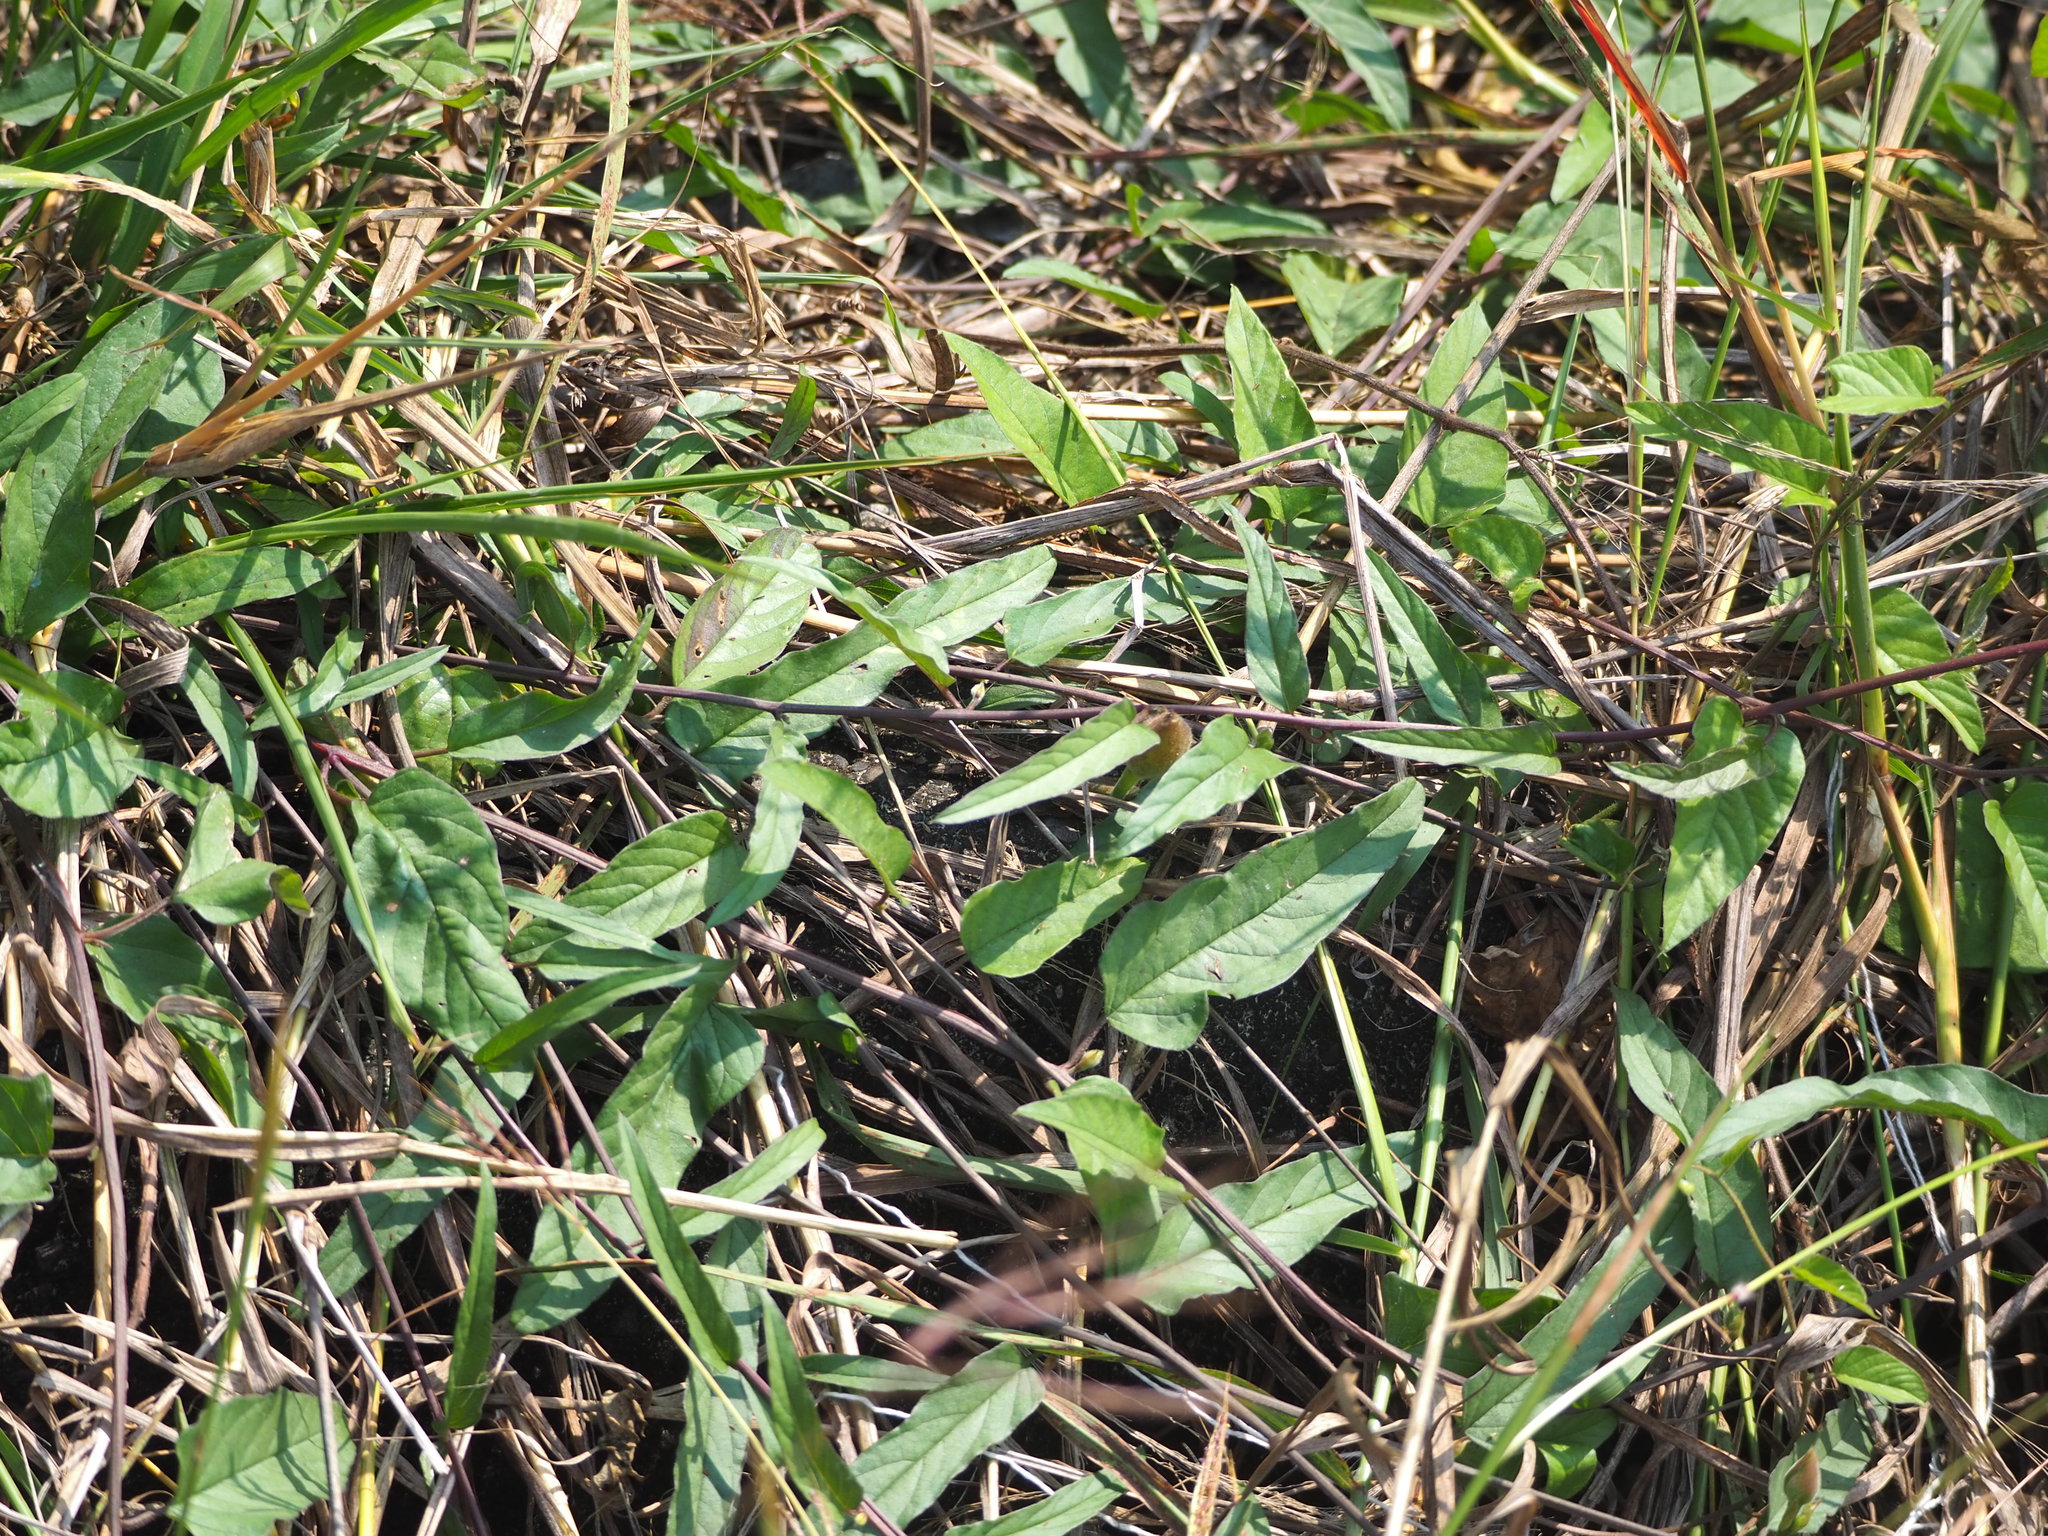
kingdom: Plantae
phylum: Tracheophyta
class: Magnoliopsida
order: Gentianales
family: Rubiaceae
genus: Paederia
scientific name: Paederia foetida
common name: Stinkvine
